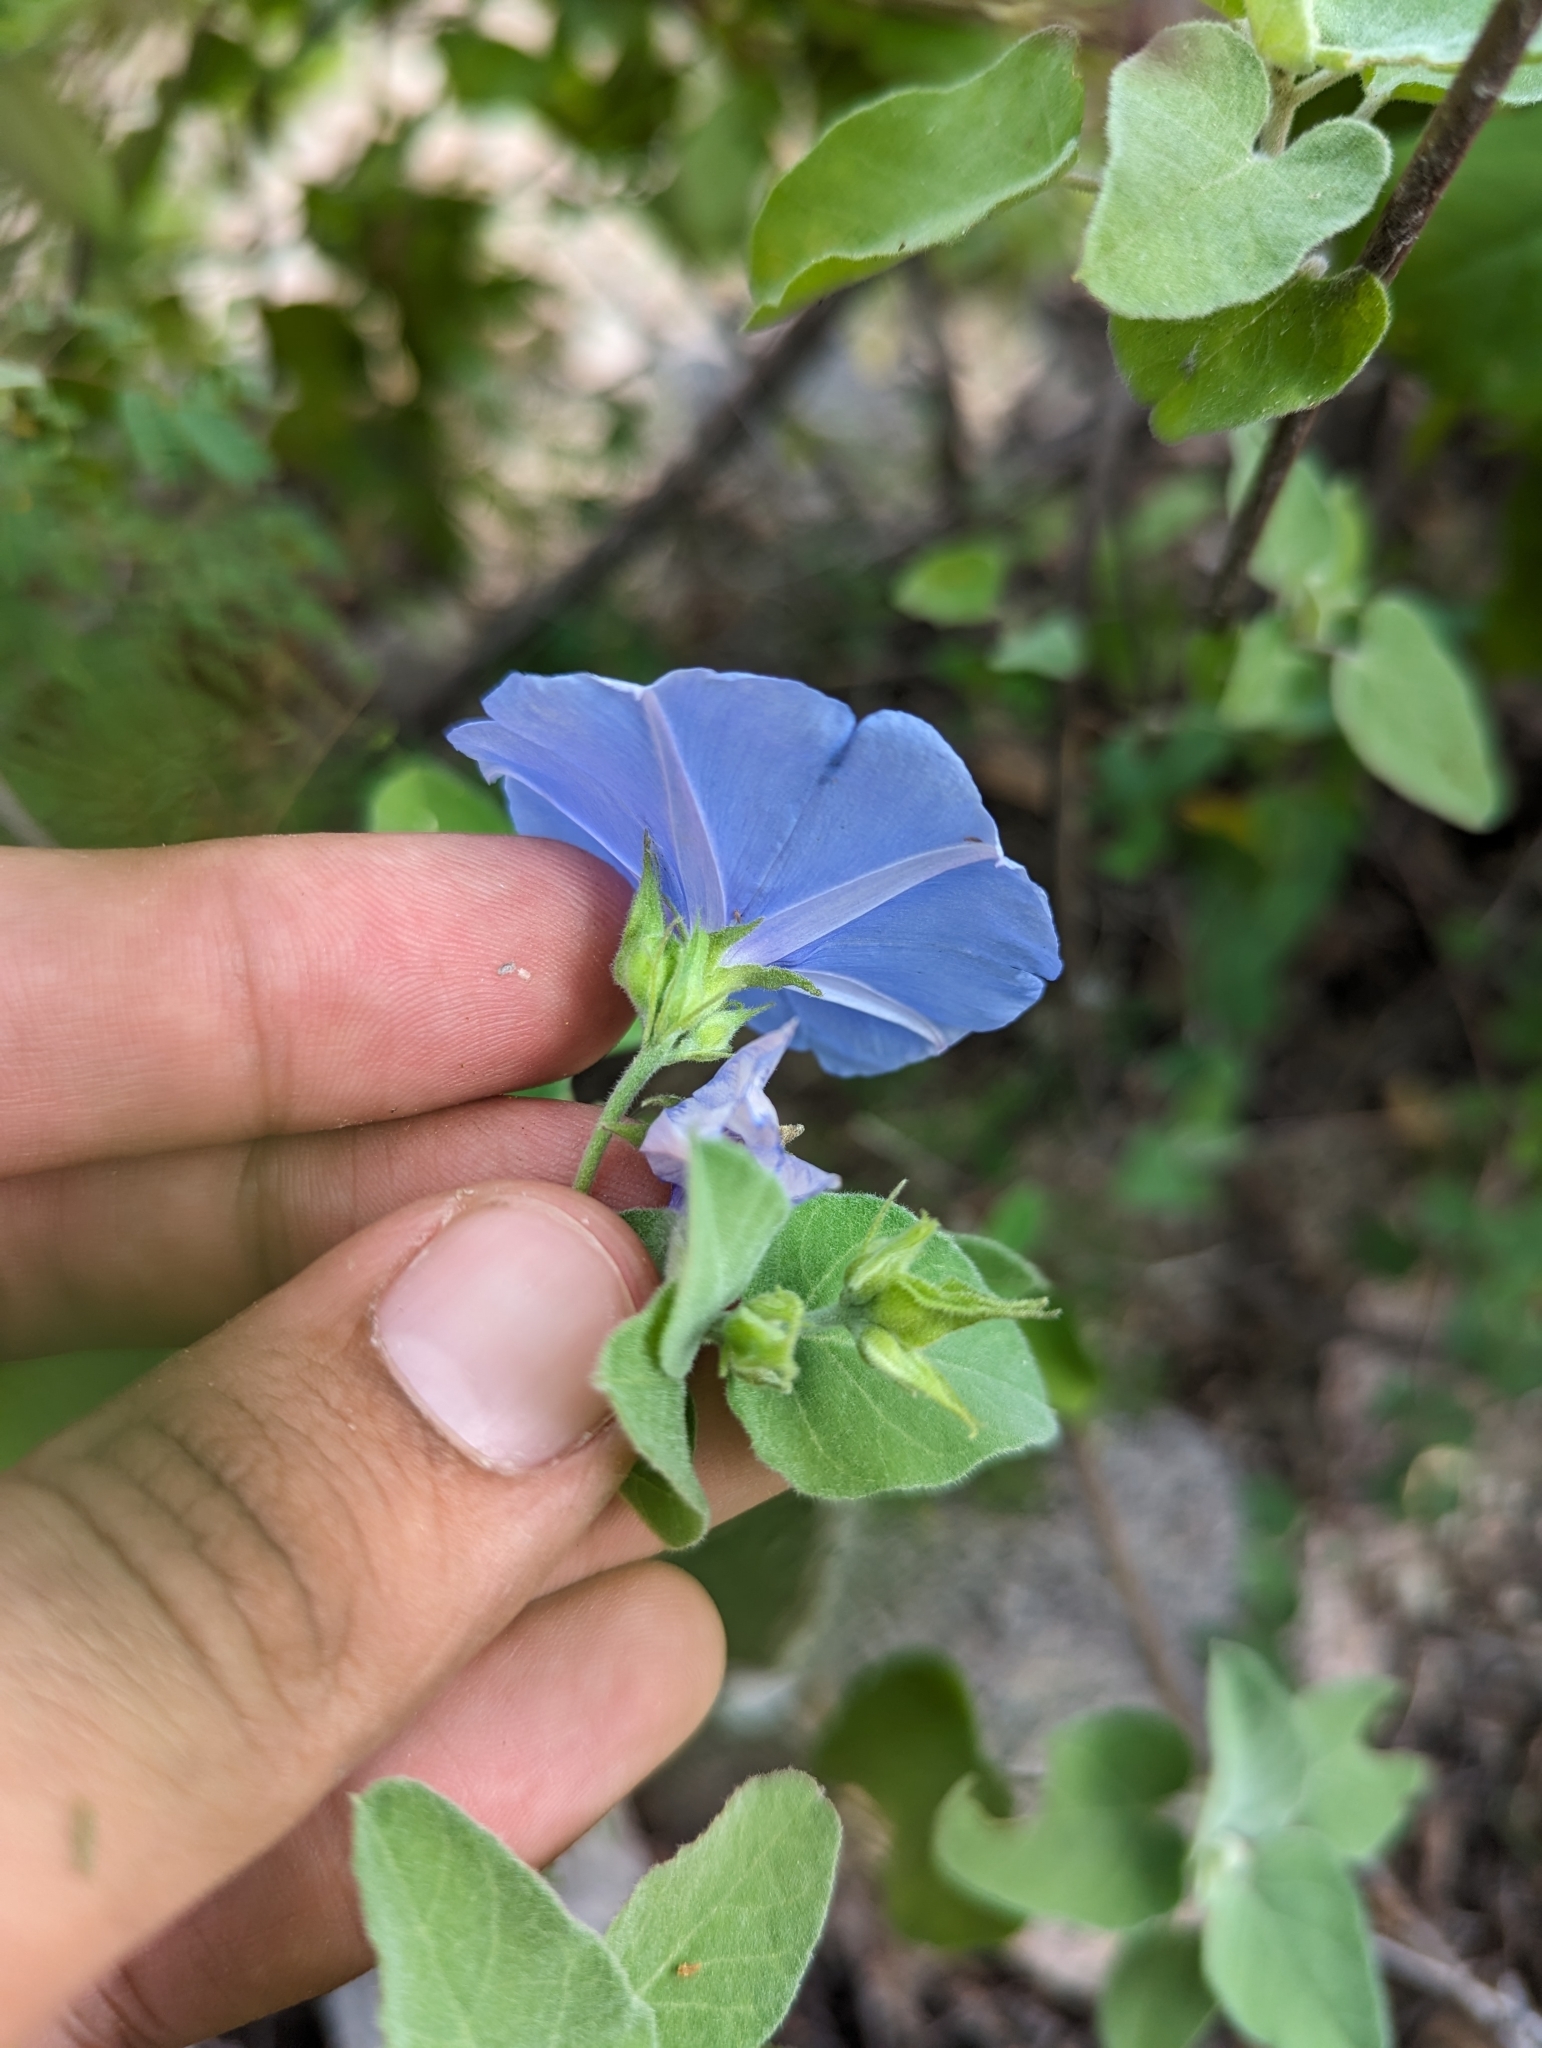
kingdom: Plantae
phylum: Tracheophyta
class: Magnoliopsida
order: Solanales
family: Convolvulaceae
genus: Jacquemontia
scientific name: Jacquemontia abutiloides
